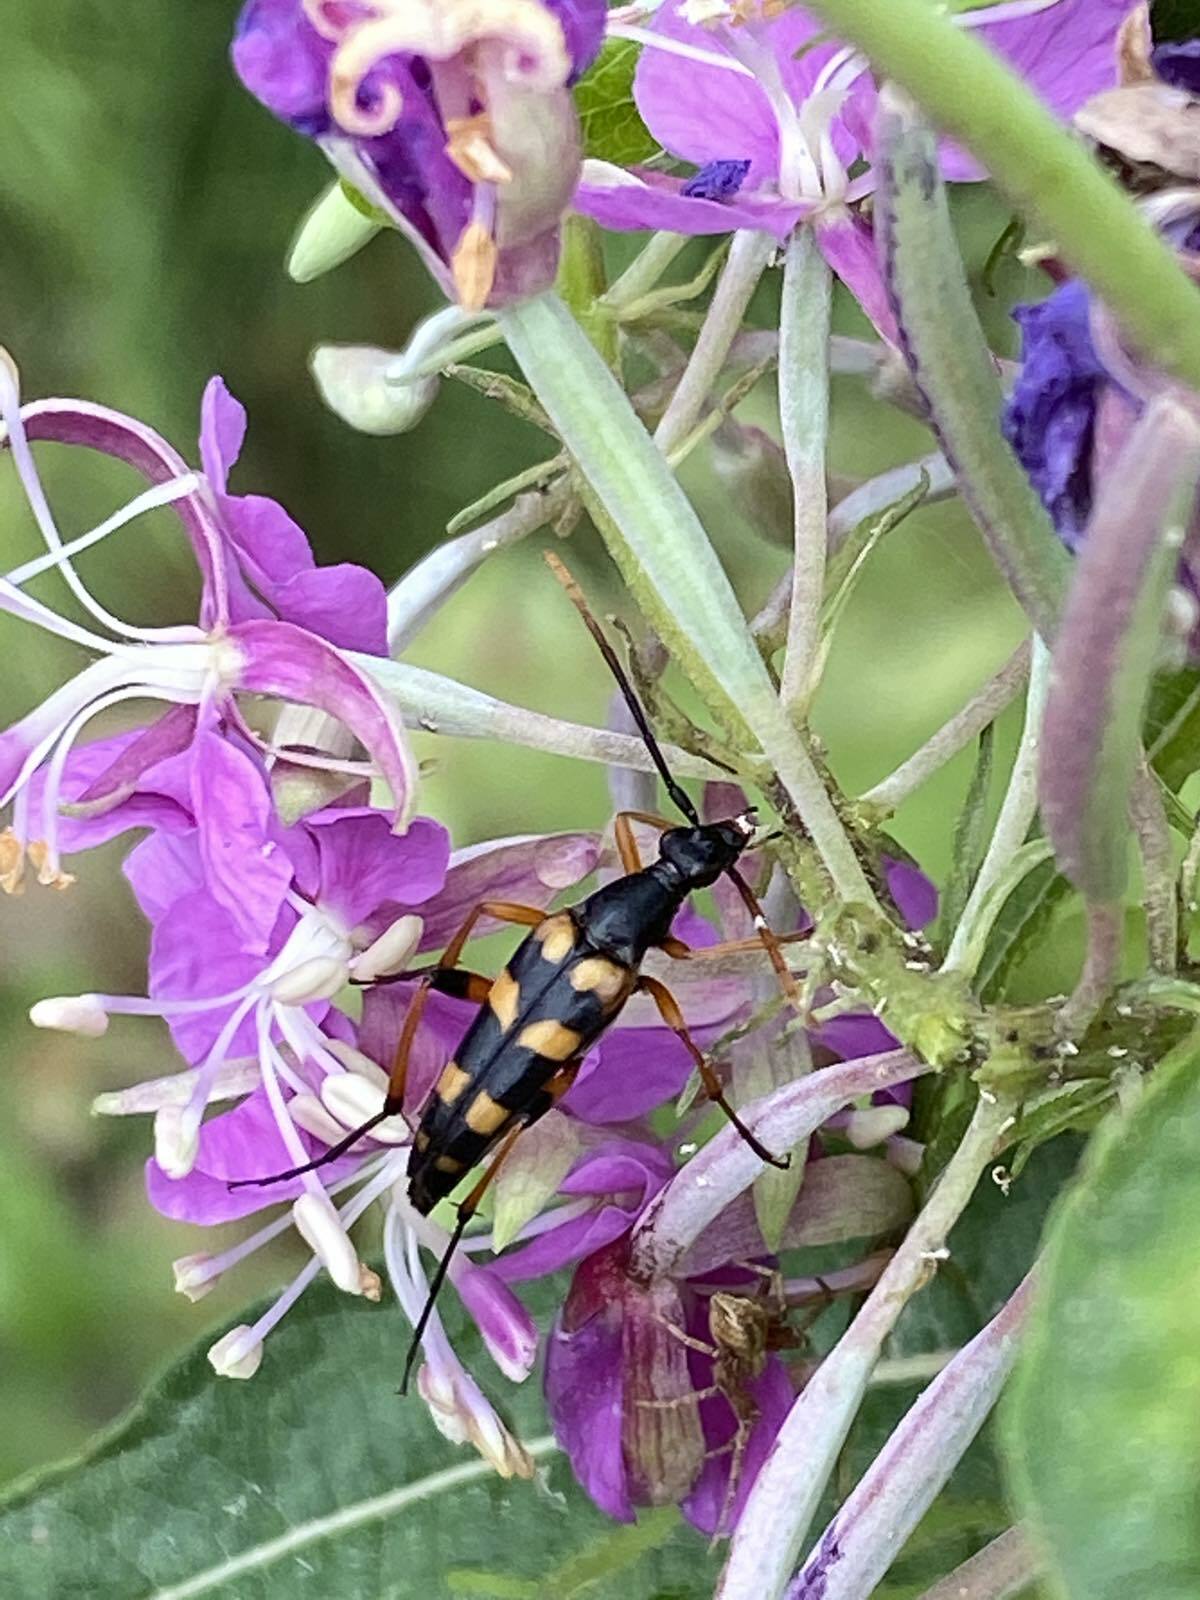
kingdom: Animalia
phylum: Arthropoda
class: Insecta
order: Coleoptera
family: Cerambycidae
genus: Strangalia
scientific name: Strangalia attenuata
